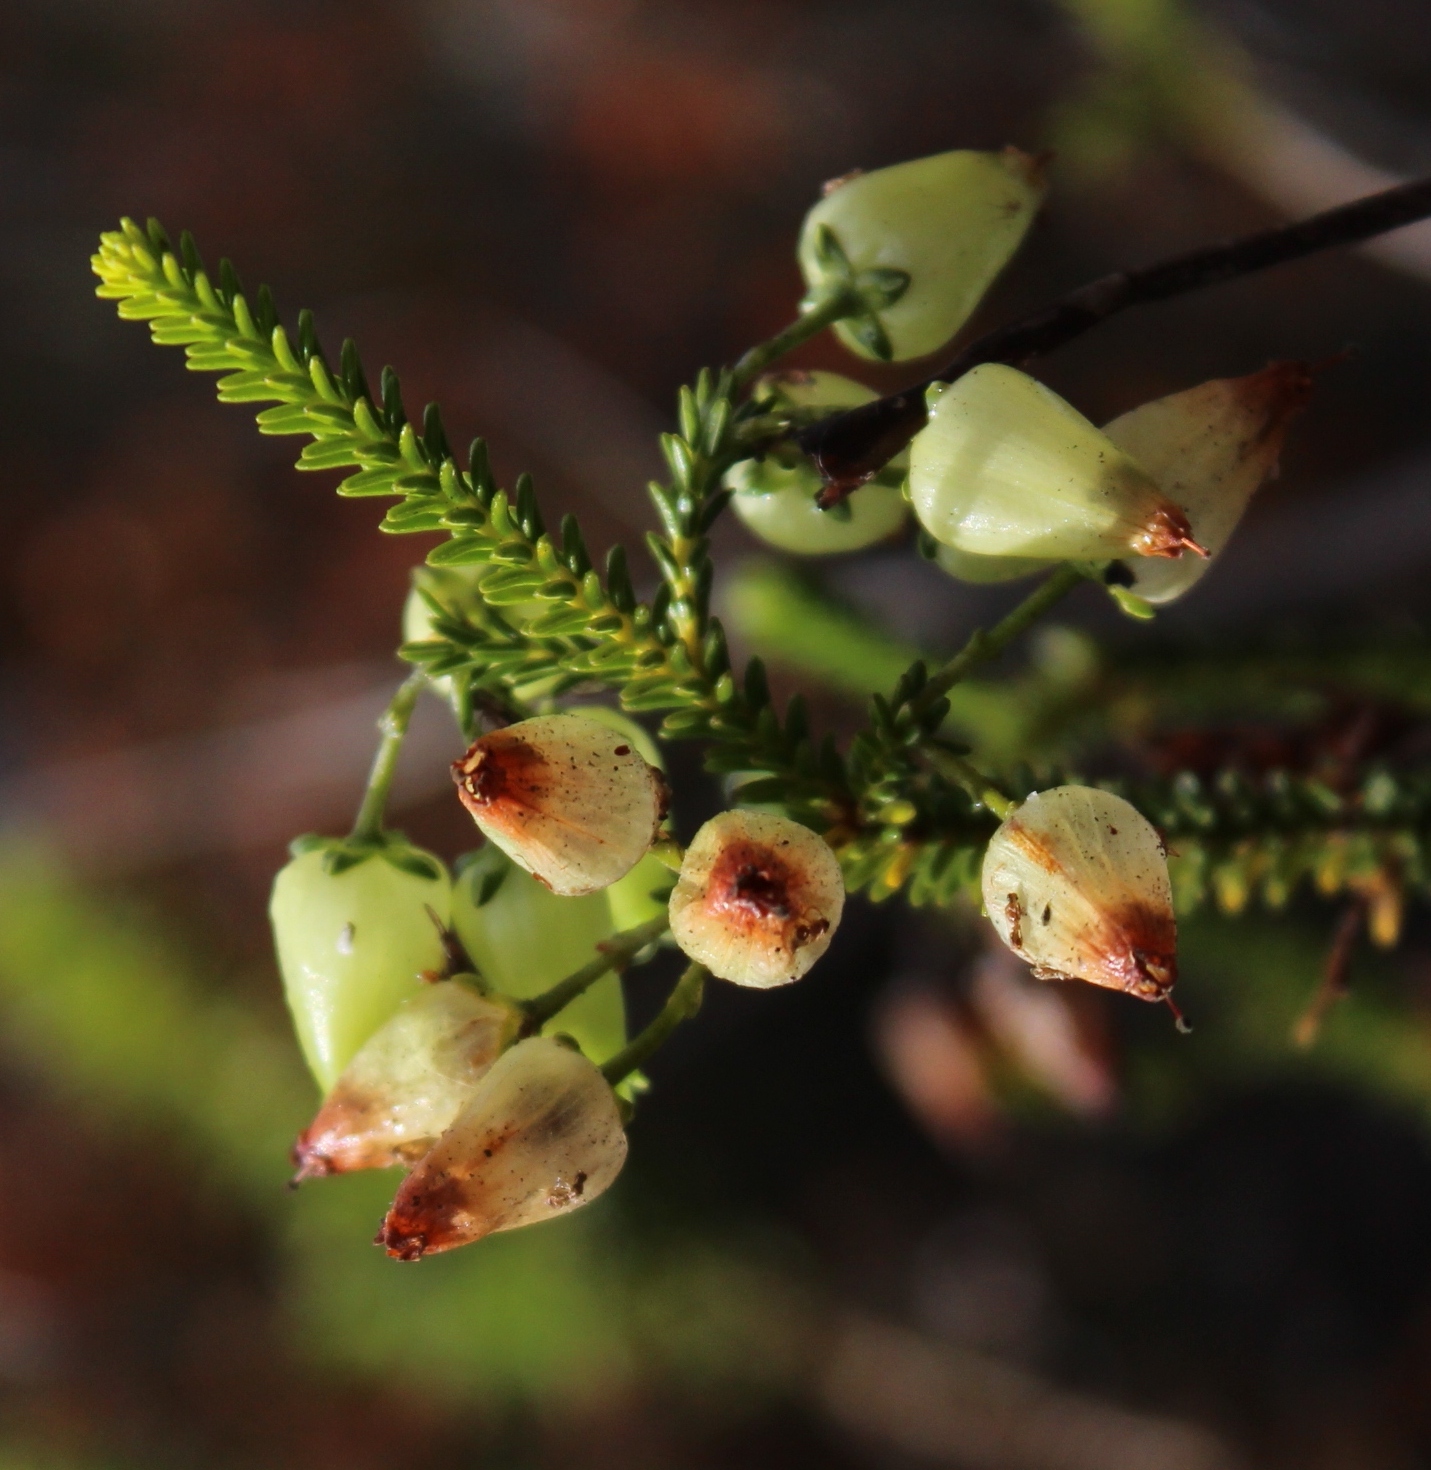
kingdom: Plantae
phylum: Tracheophyta
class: Magnoliopsida
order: Ericales
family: Ericaceae
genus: Erica
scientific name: Erica urna-viridis
